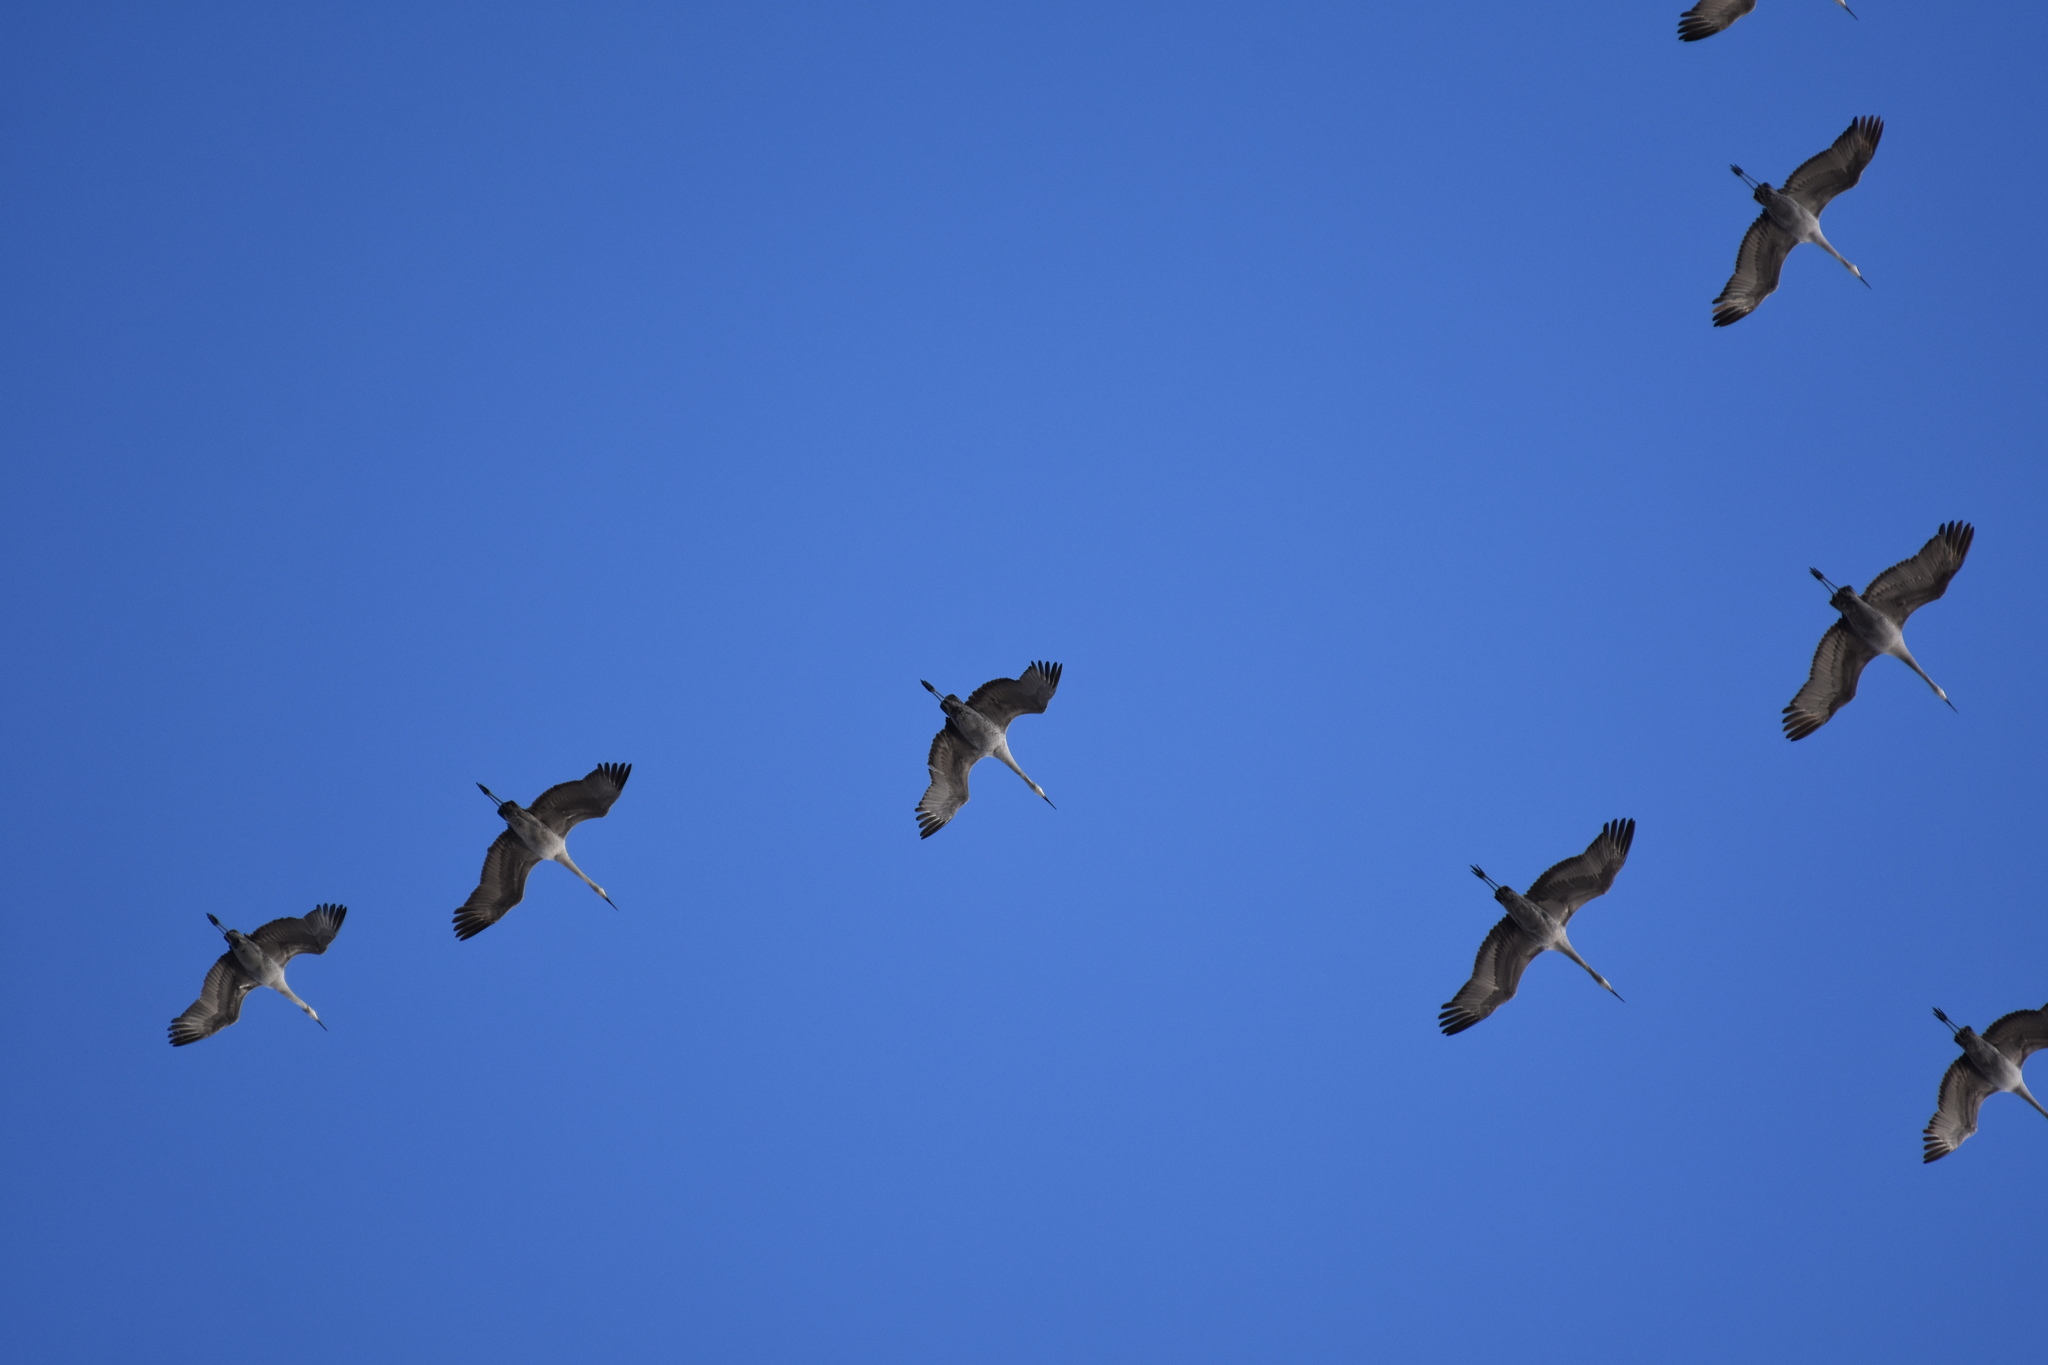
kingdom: Animalia
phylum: Chordata
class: Aves
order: Gruiformes
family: Gruidae
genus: Grus
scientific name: Grus canadensis
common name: Sandhill crane
